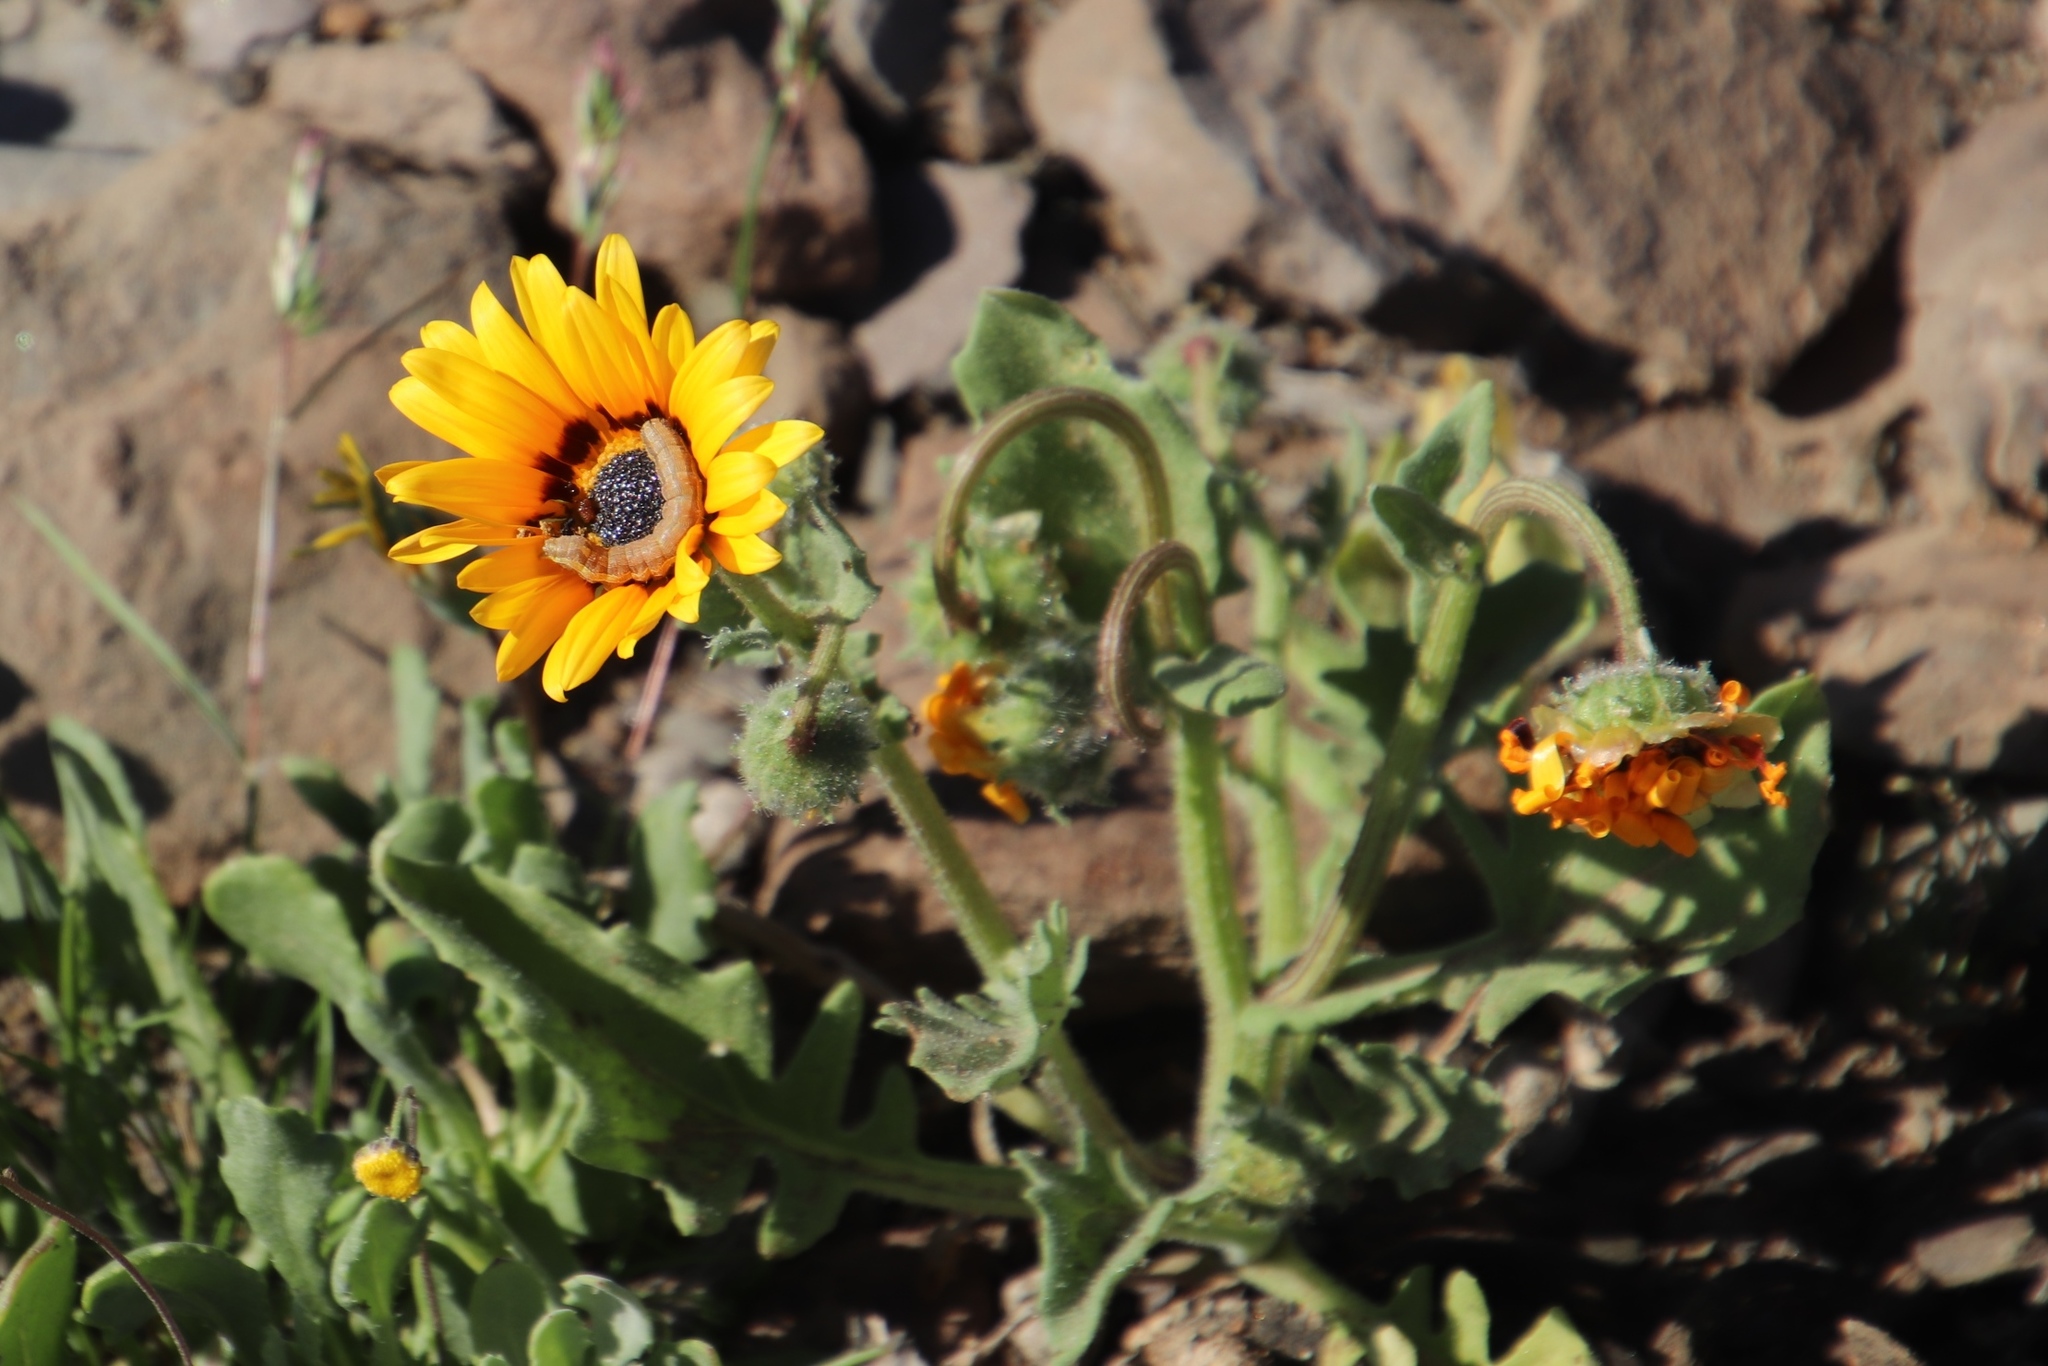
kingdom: Plantae
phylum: Tracheophyta
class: Magnoliopsida
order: Asterales
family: Asteraceae
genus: Arctotis
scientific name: Arctotis hirsuta
